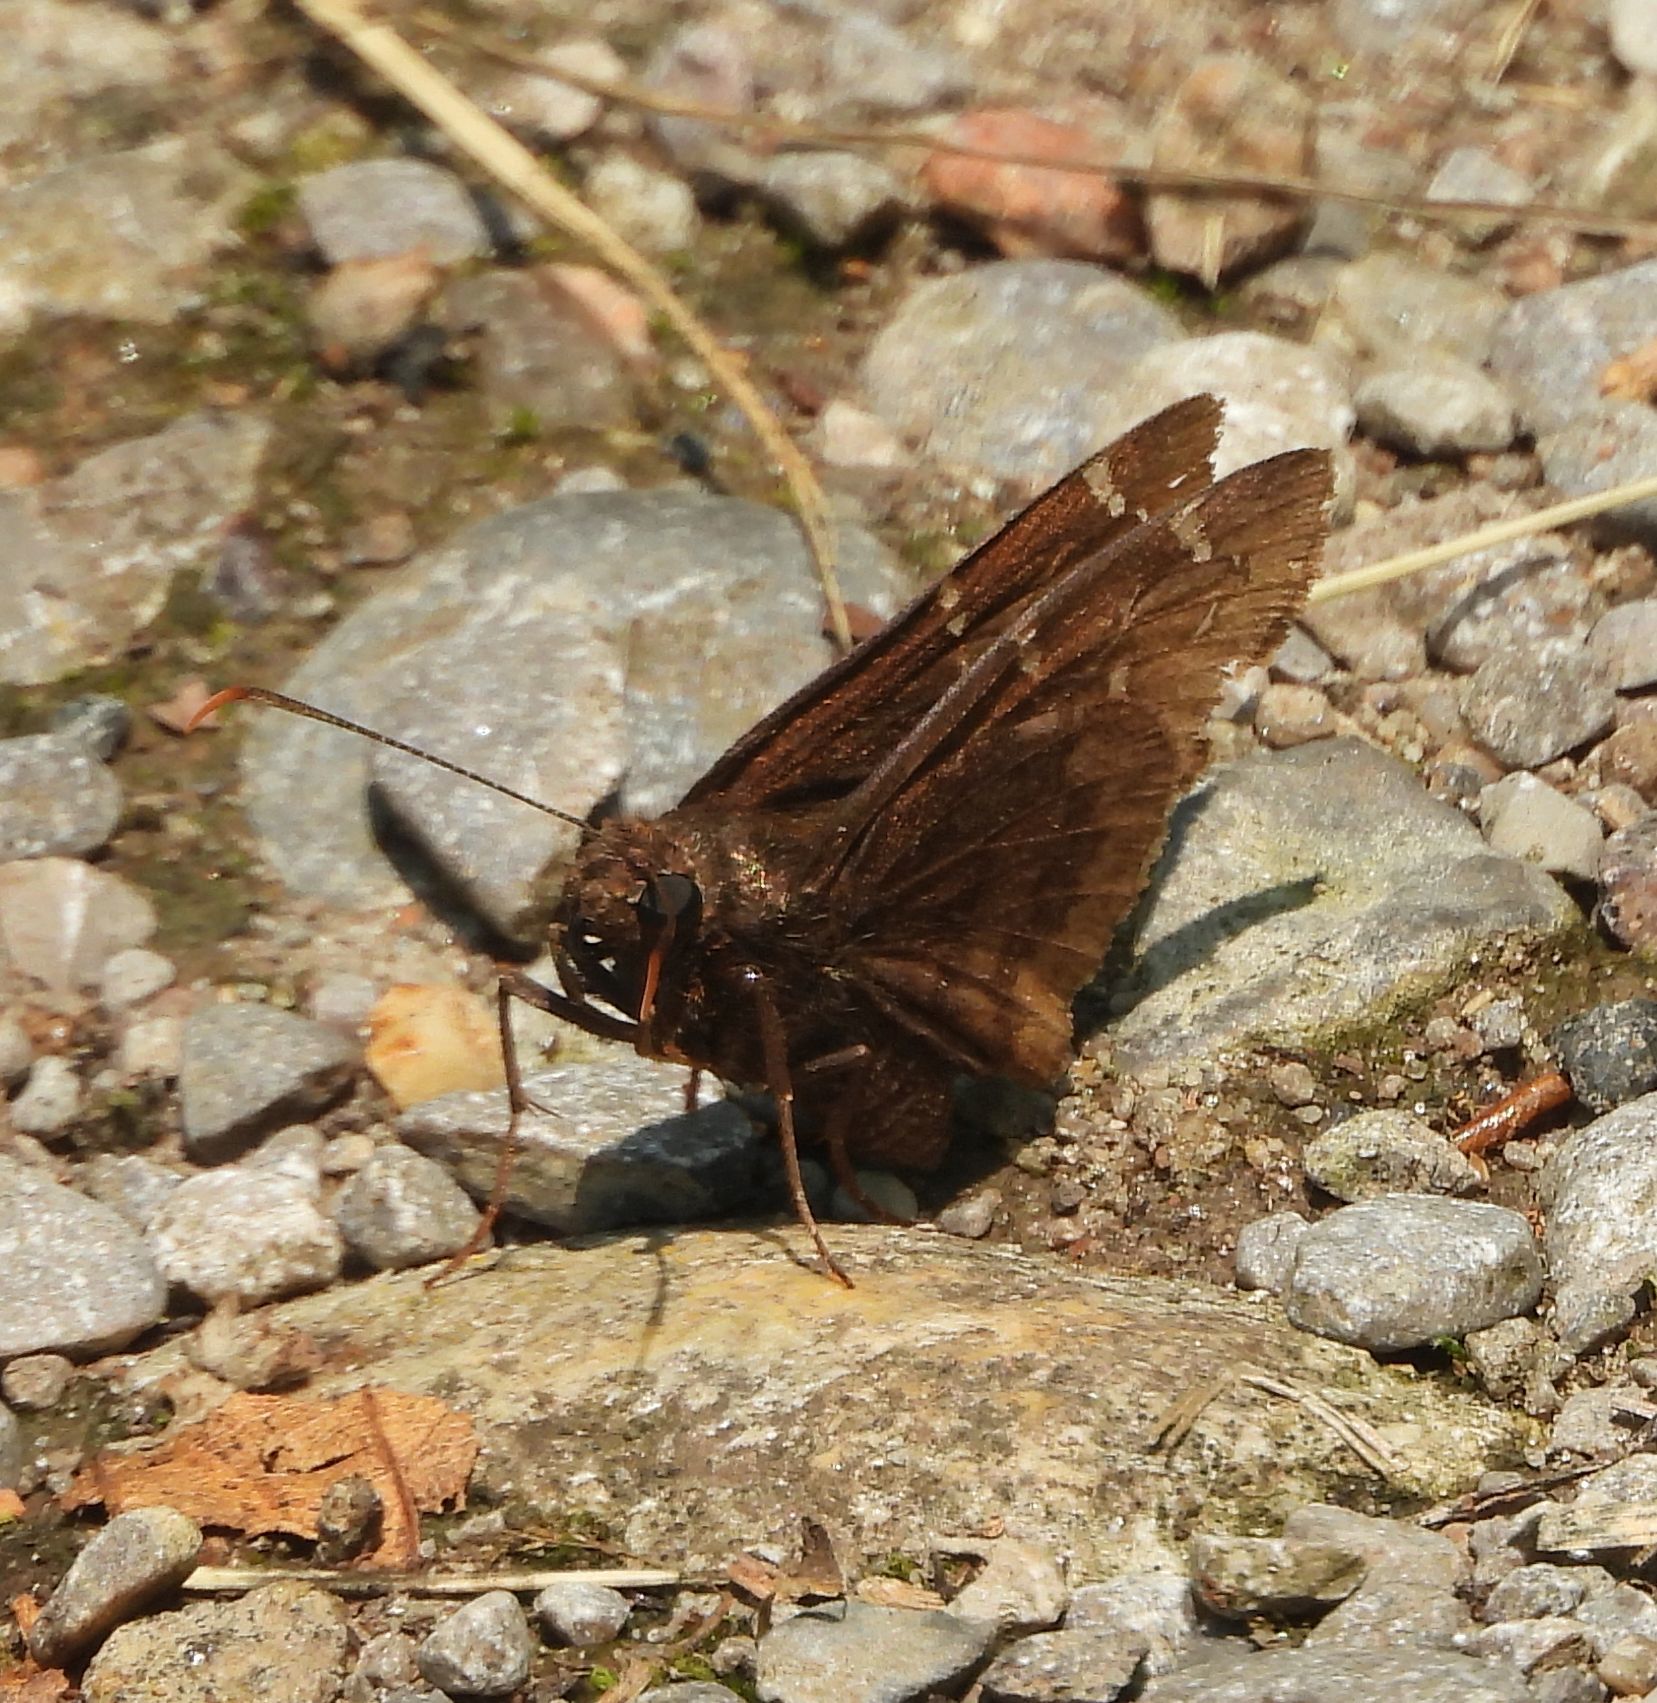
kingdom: Animalia
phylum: Arthropoda
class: Insecta
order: Lepidoptera
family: Hesperiidae
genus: Thorybes
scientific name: Thorybes pylades
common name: Northern cloudywing
